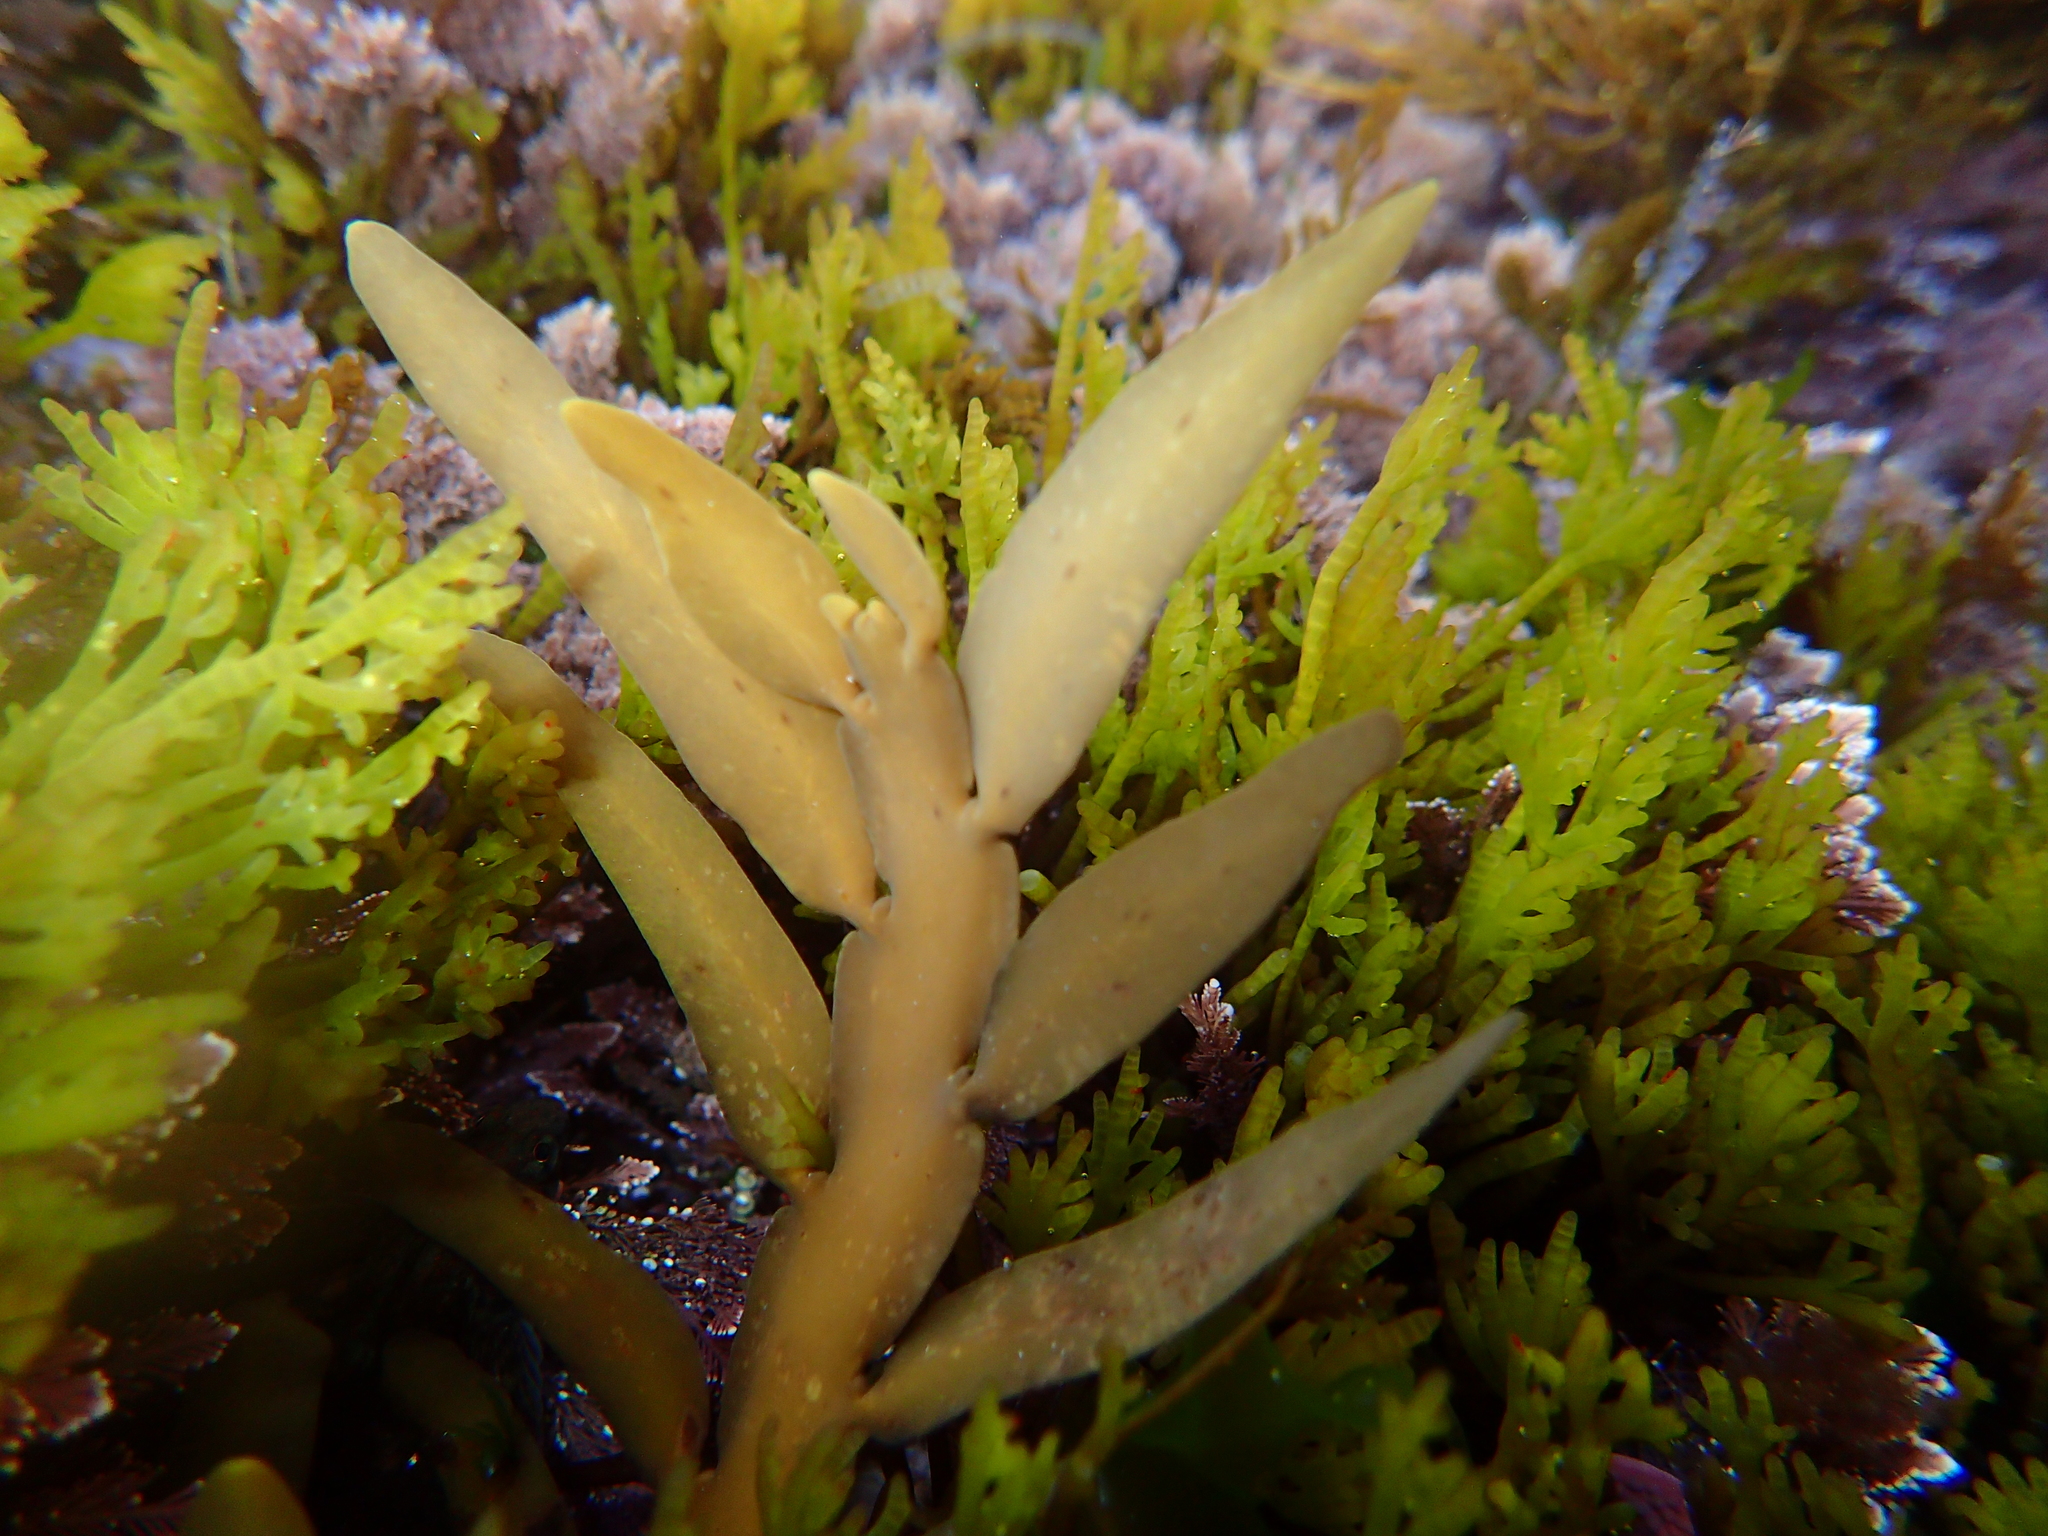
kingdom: Chromista
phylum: Ochrophyta
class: Phaeophyceae
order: Fucales
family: Sargassaceae
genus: Carpophyllum
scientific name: Carpophyllum maschalocarpum
